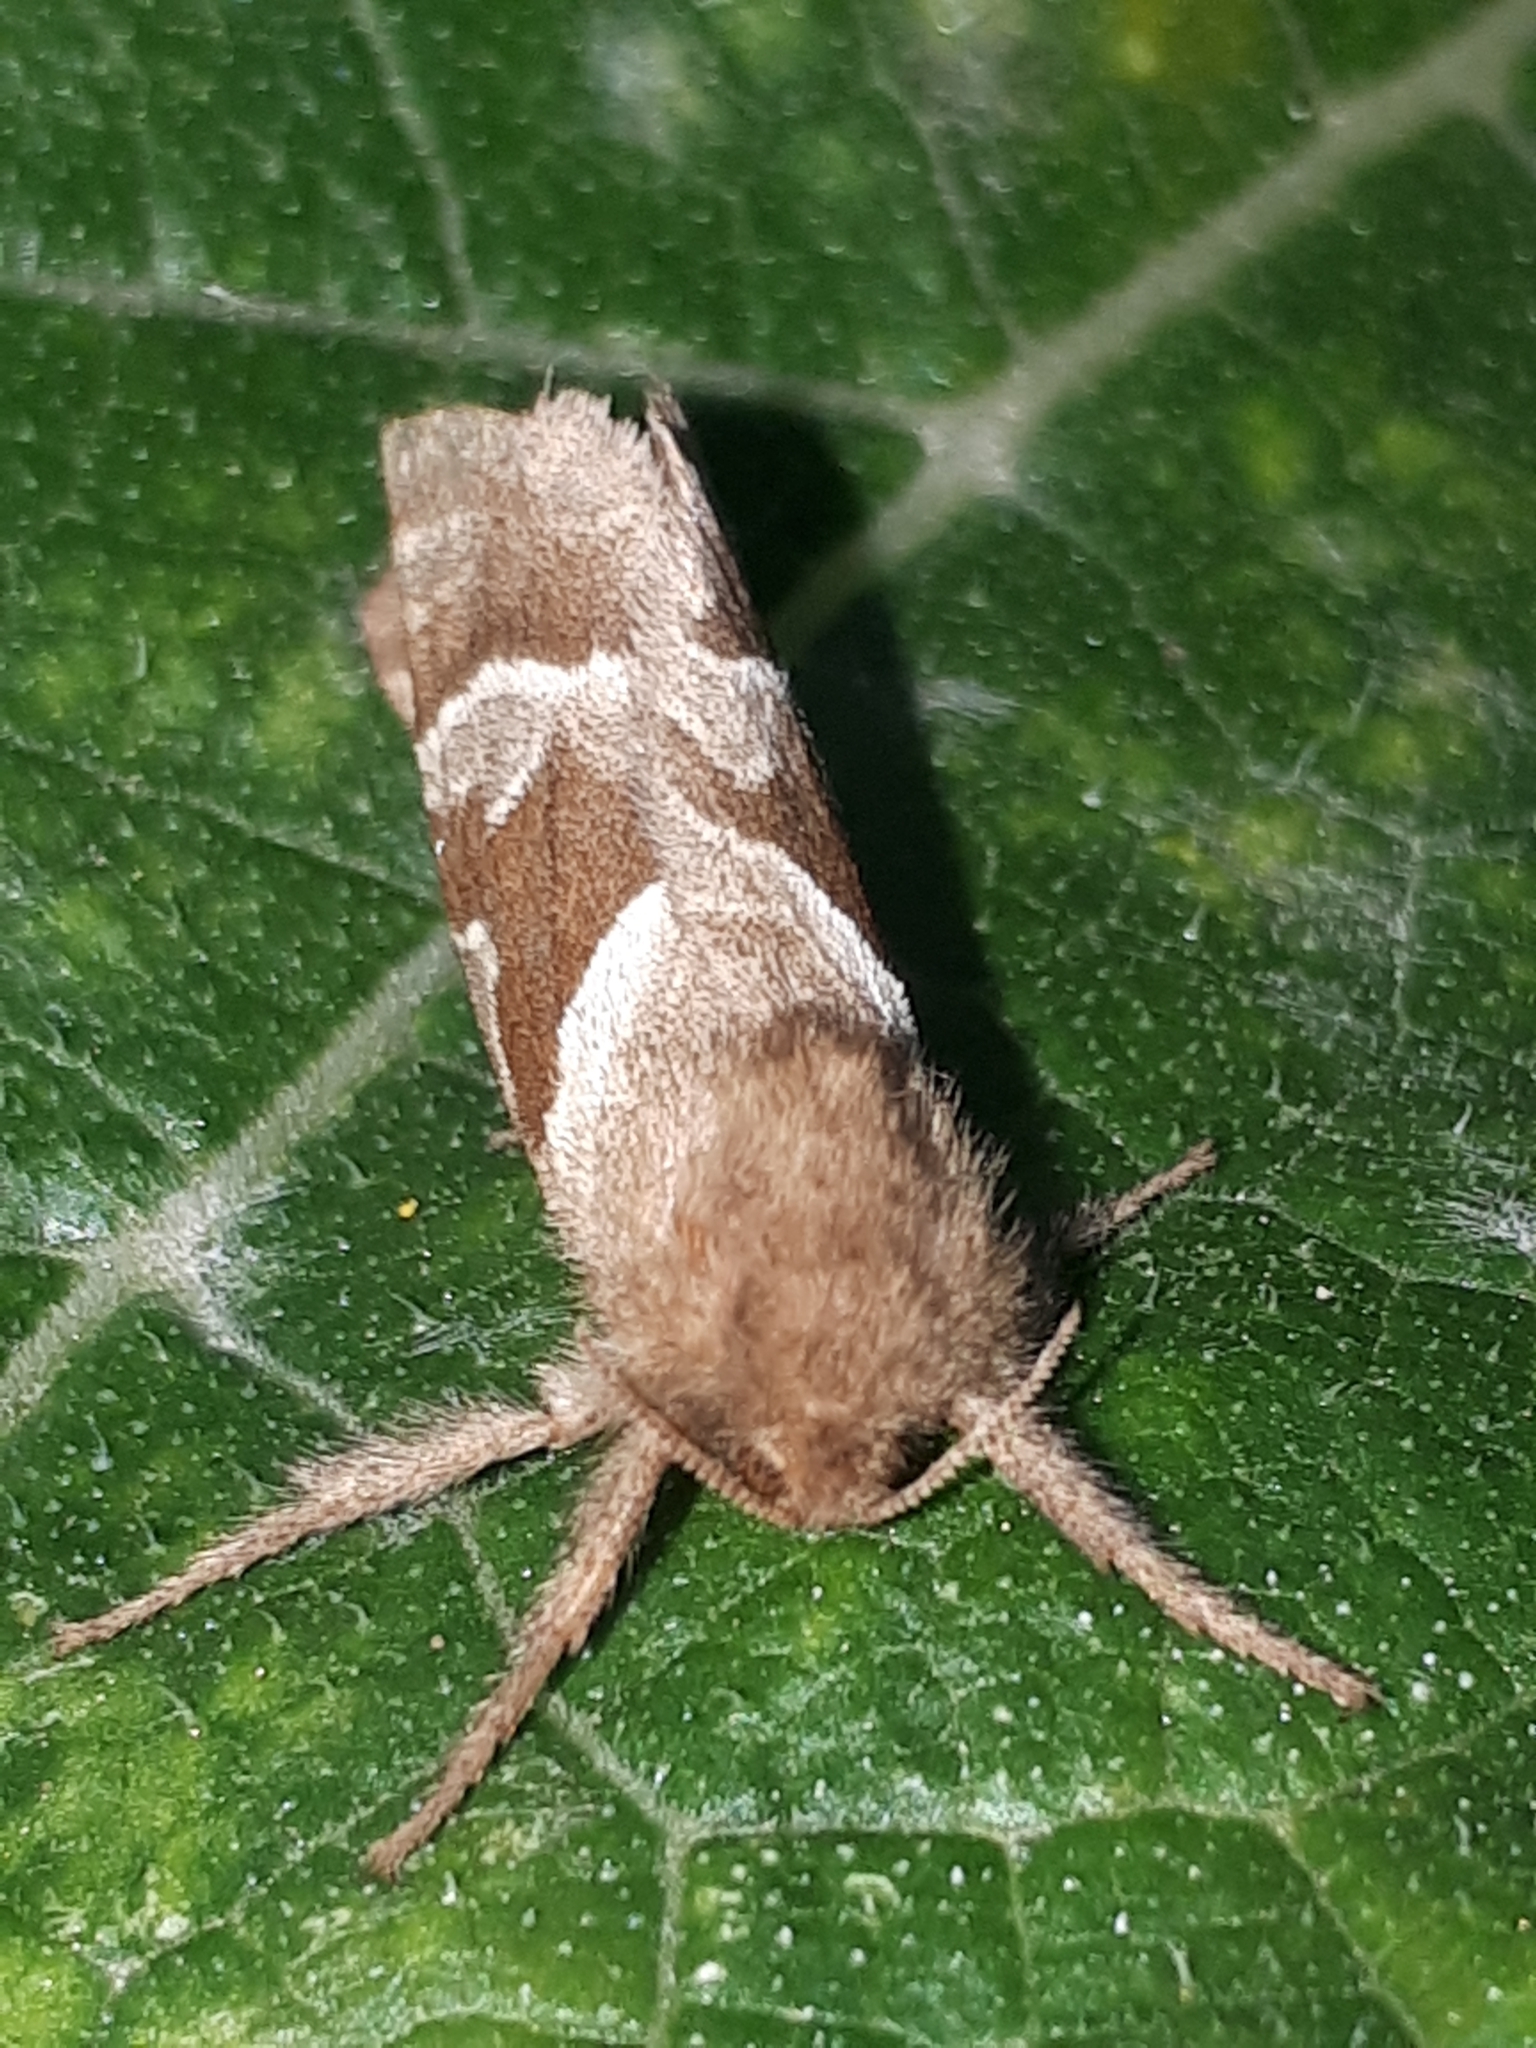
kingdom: Animalia
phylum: Arthropoda
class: Insecta
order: Lepidoptera
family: Hepialidae
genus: Triodia
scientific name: Triodia sylvina
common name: Orange swift
